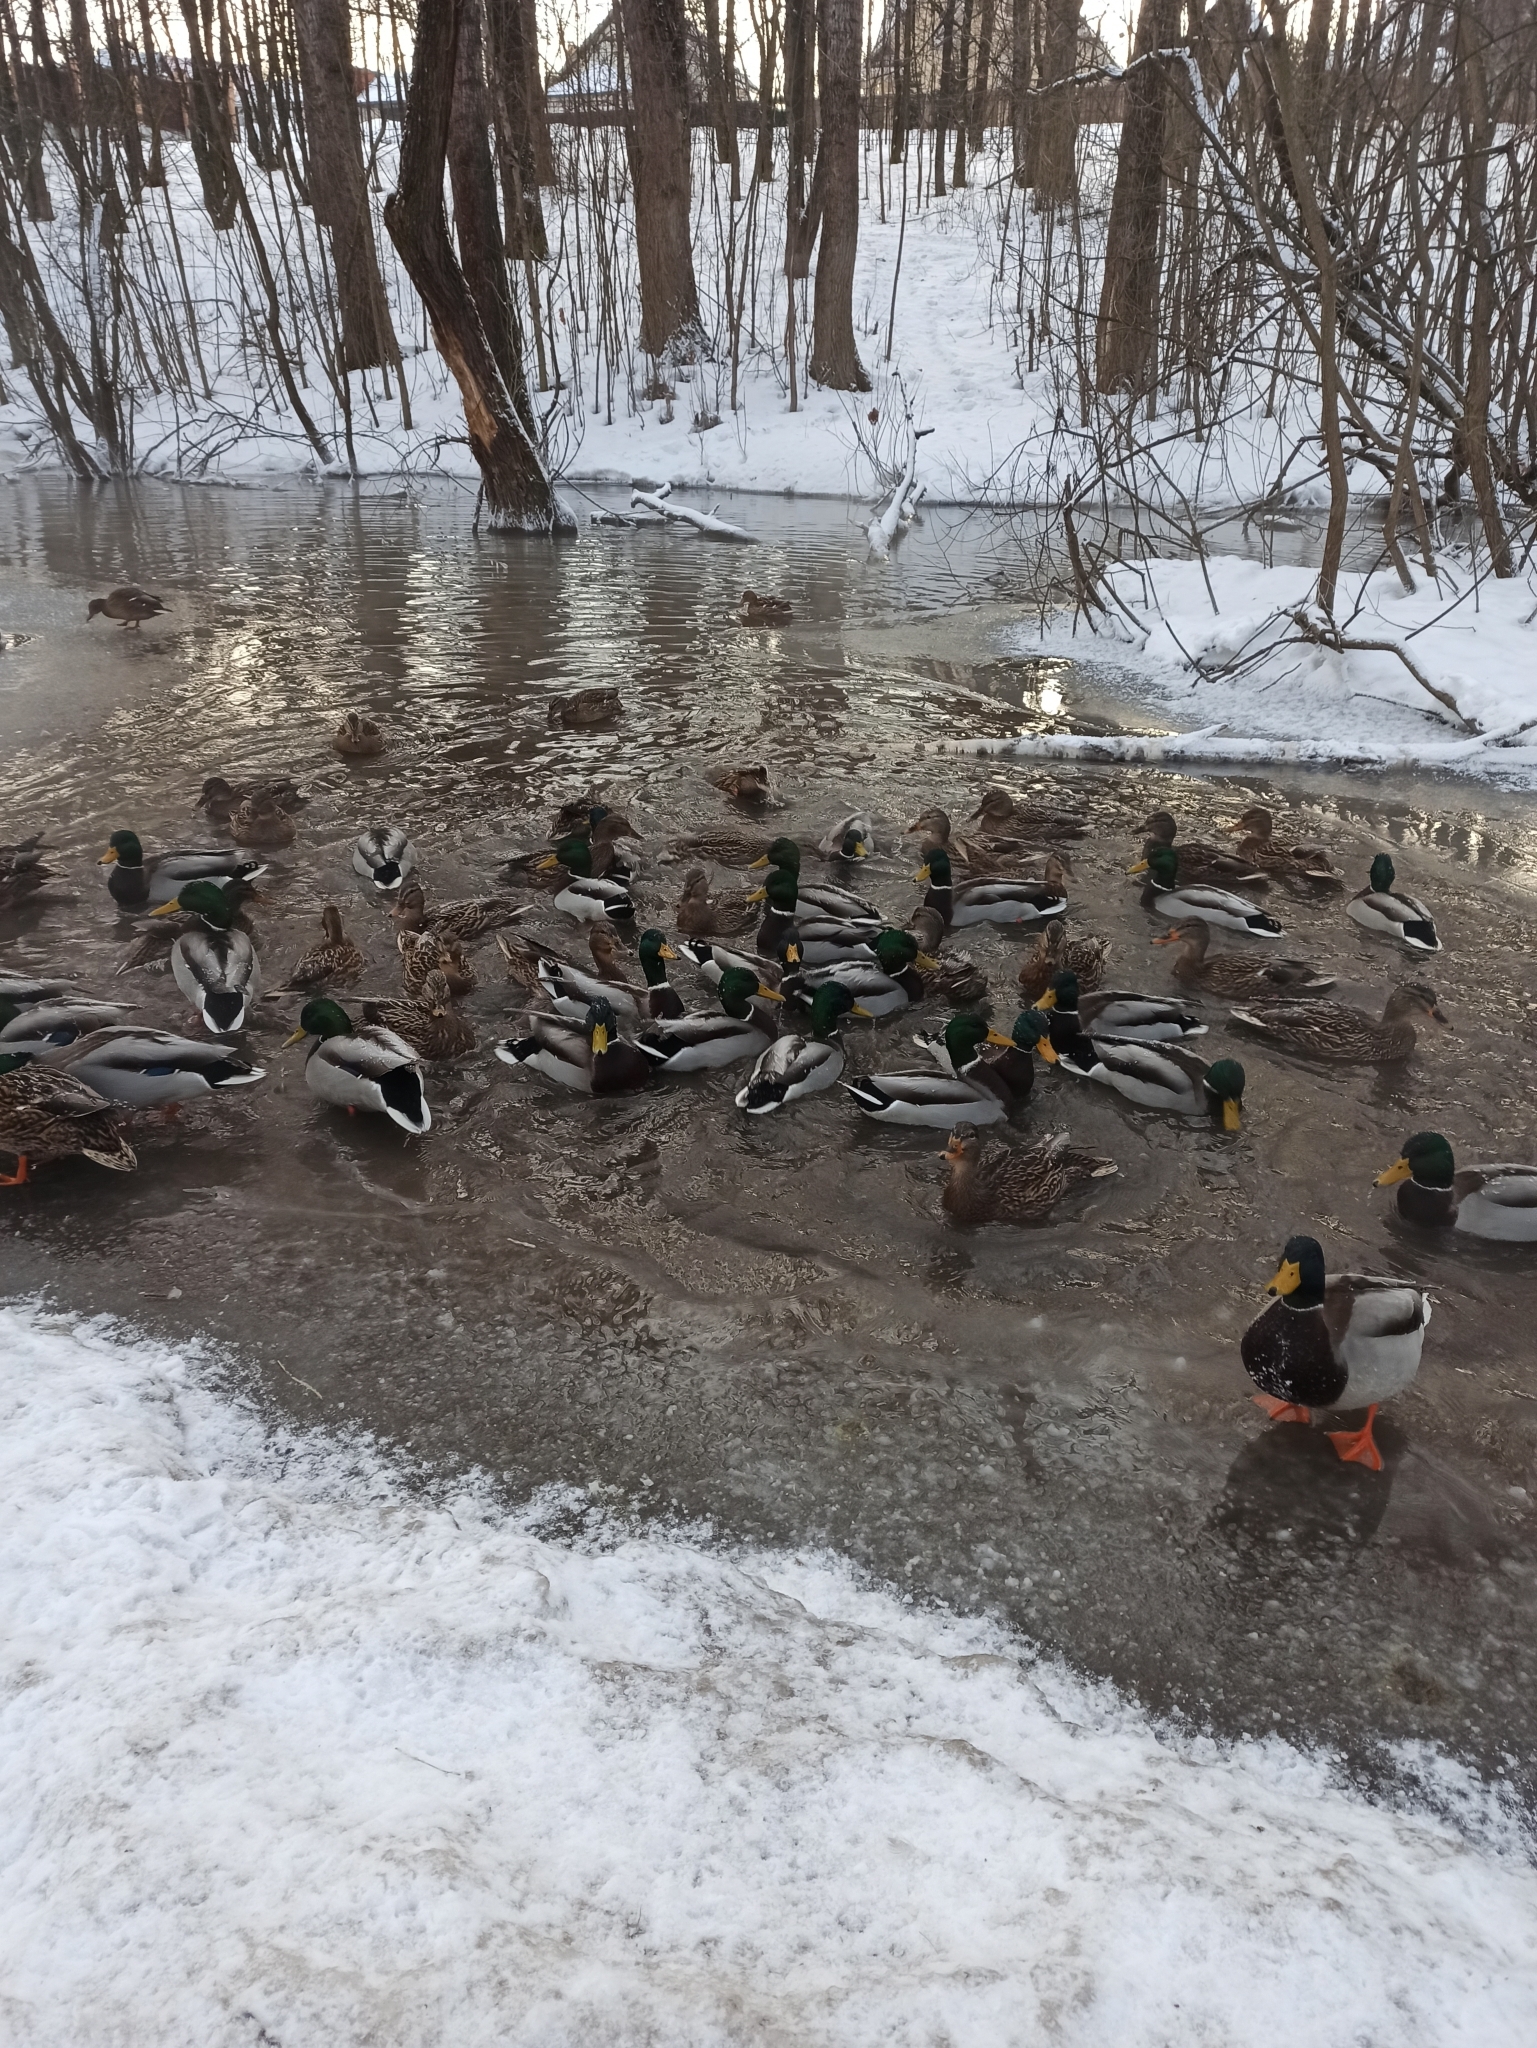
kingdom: Animalia
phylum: Chordata
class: Aves
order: Anseriformes
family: Anatidae
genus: Anas
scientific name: Anas platyrhynchos
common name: Mallard
